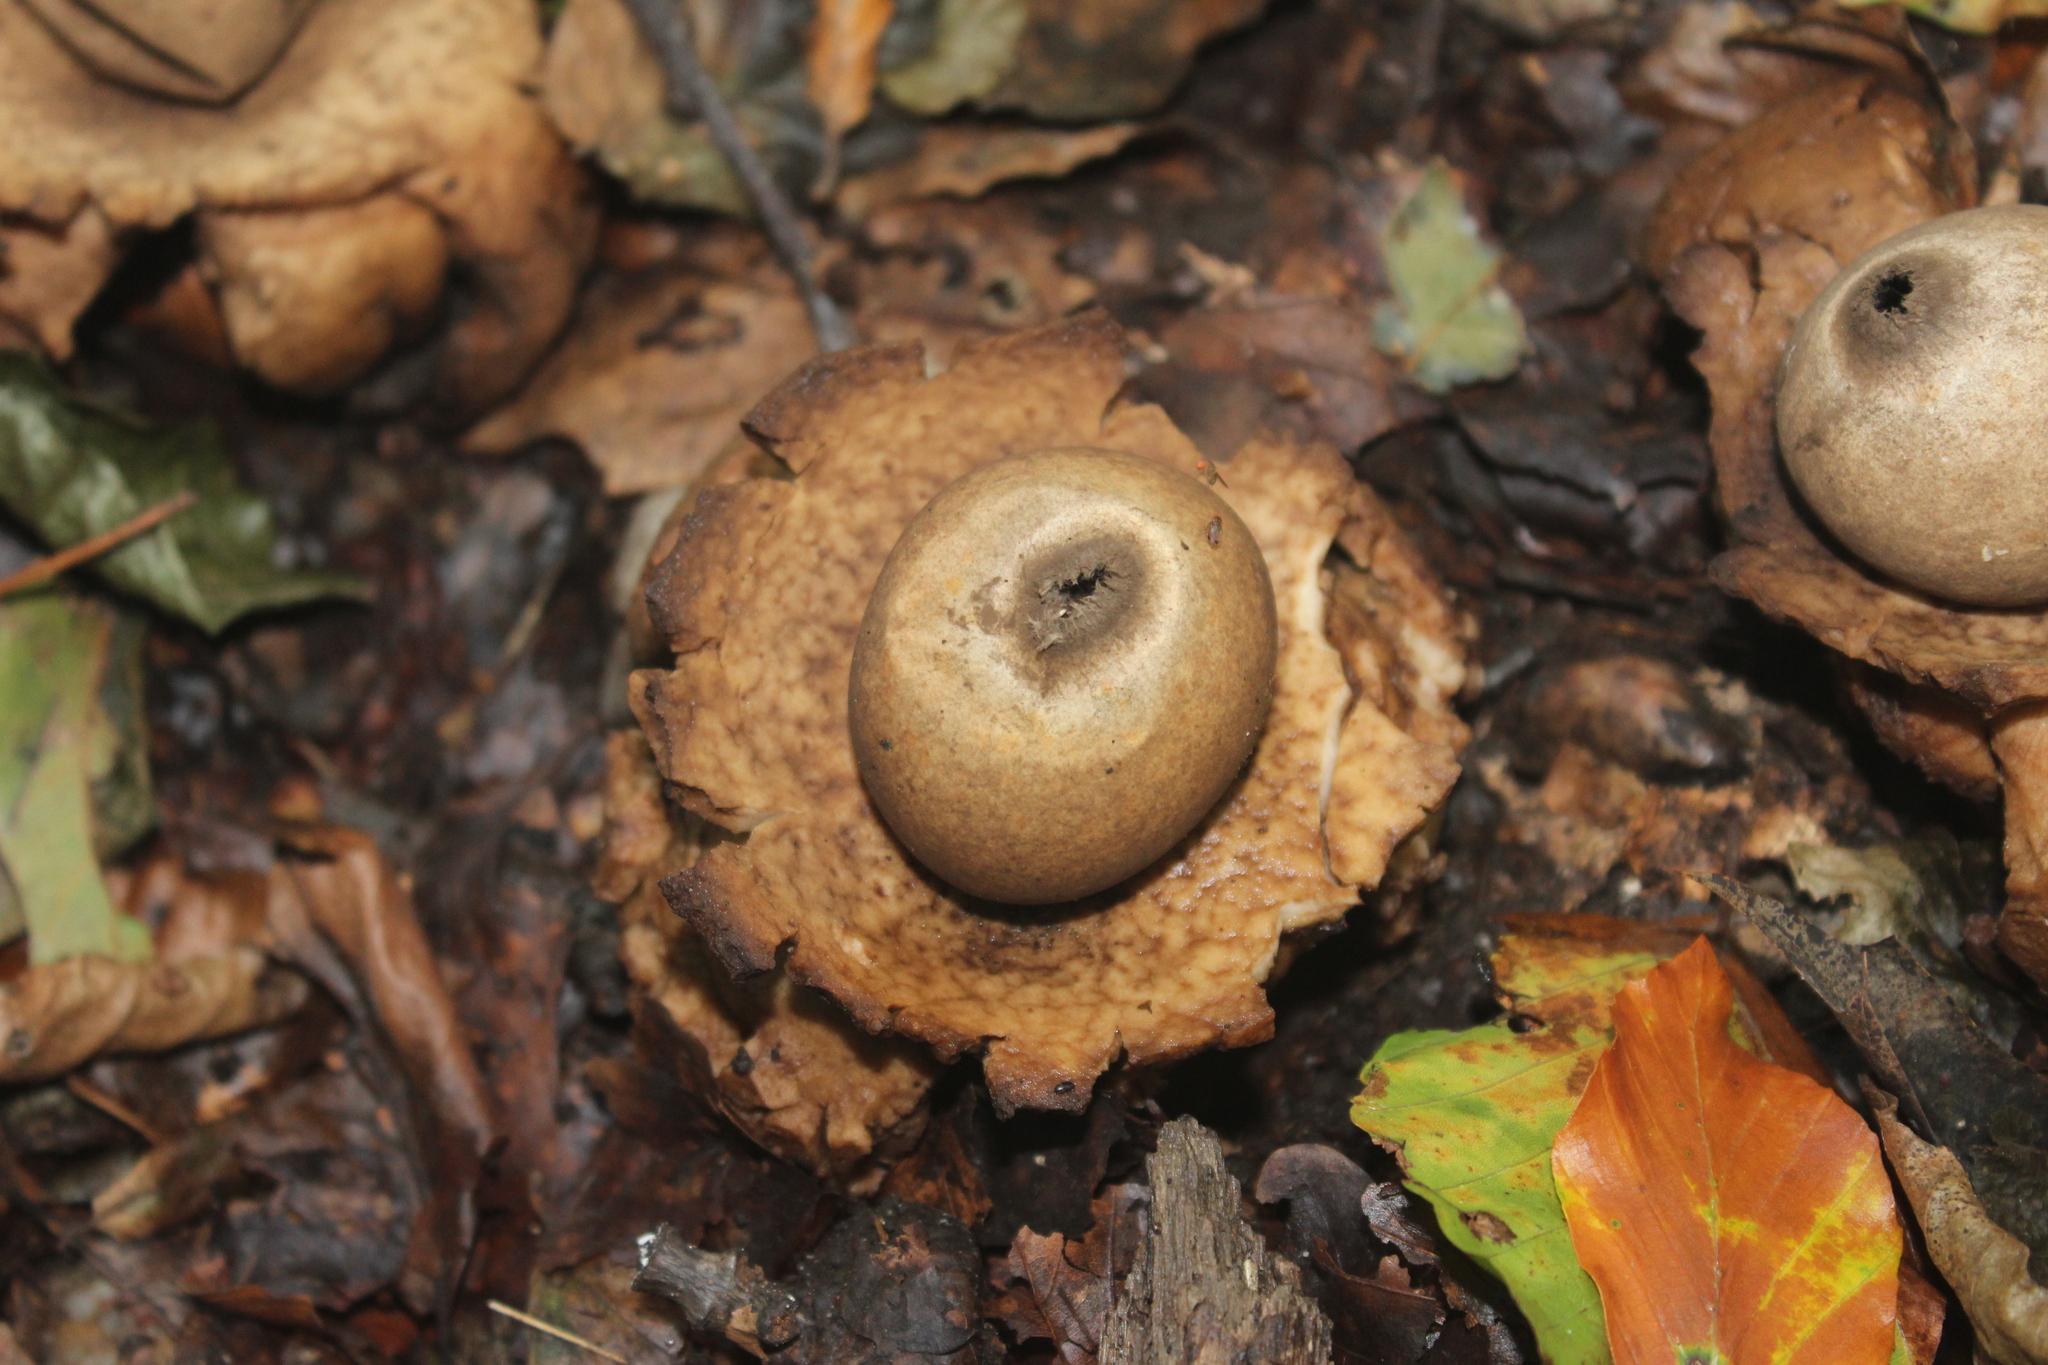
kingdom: Fungi
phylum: Basidiomycota
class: Agaricomycetes
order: Geastrales
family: Geastraceae
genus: Geastrum
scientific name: Geastrum triplex
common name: Collared earthstar
